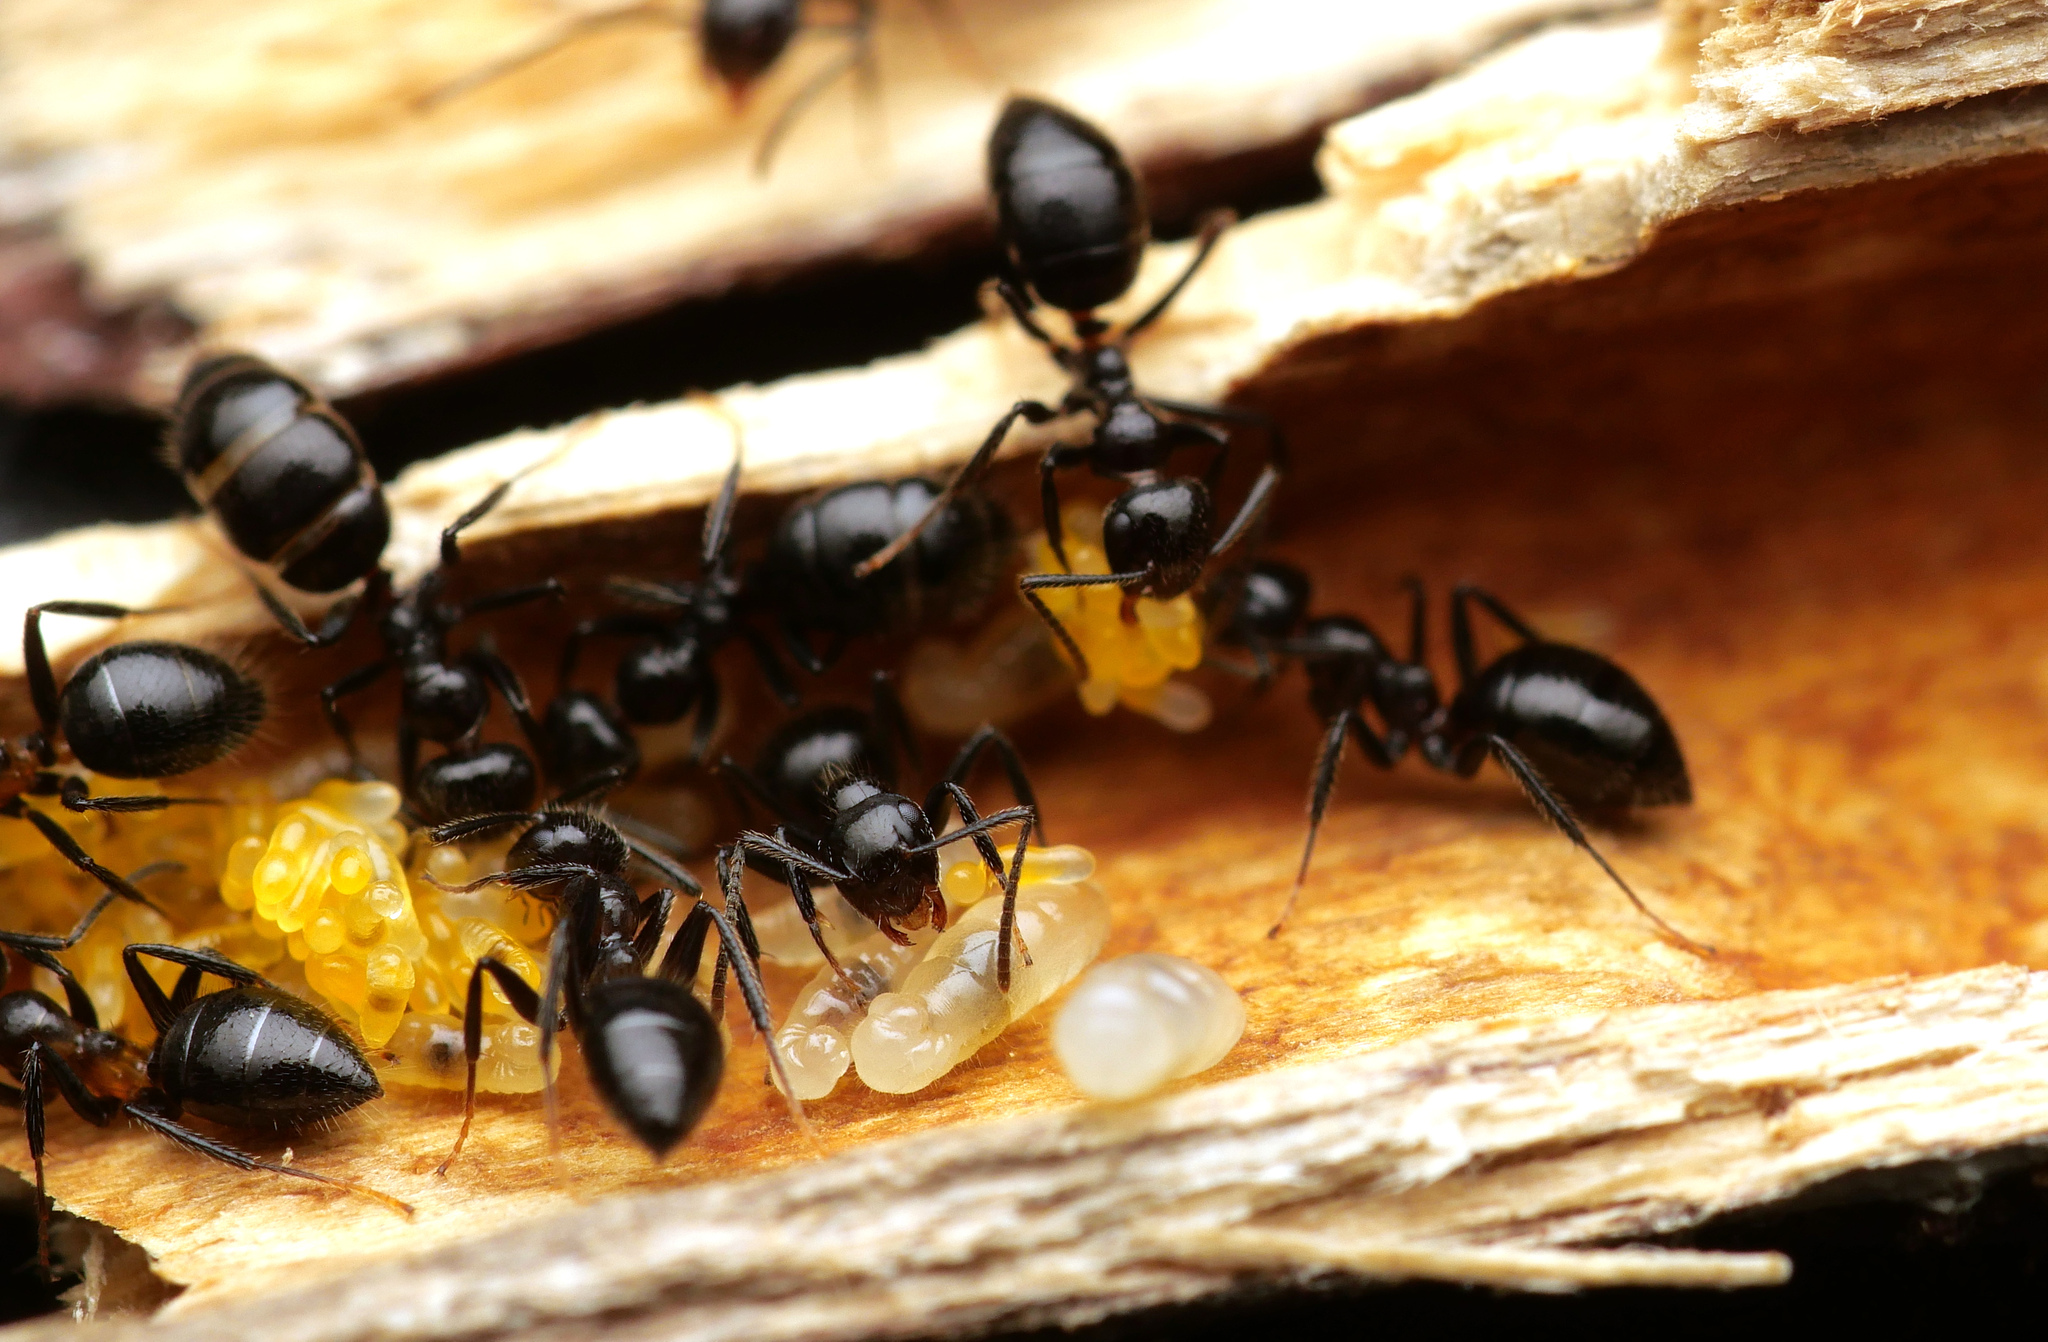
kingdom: Animalia
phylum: Arthropoda
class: Insecta
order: Hymenoptera
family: Formicidae
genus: Camponotus
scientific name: Camponotus vitreus
